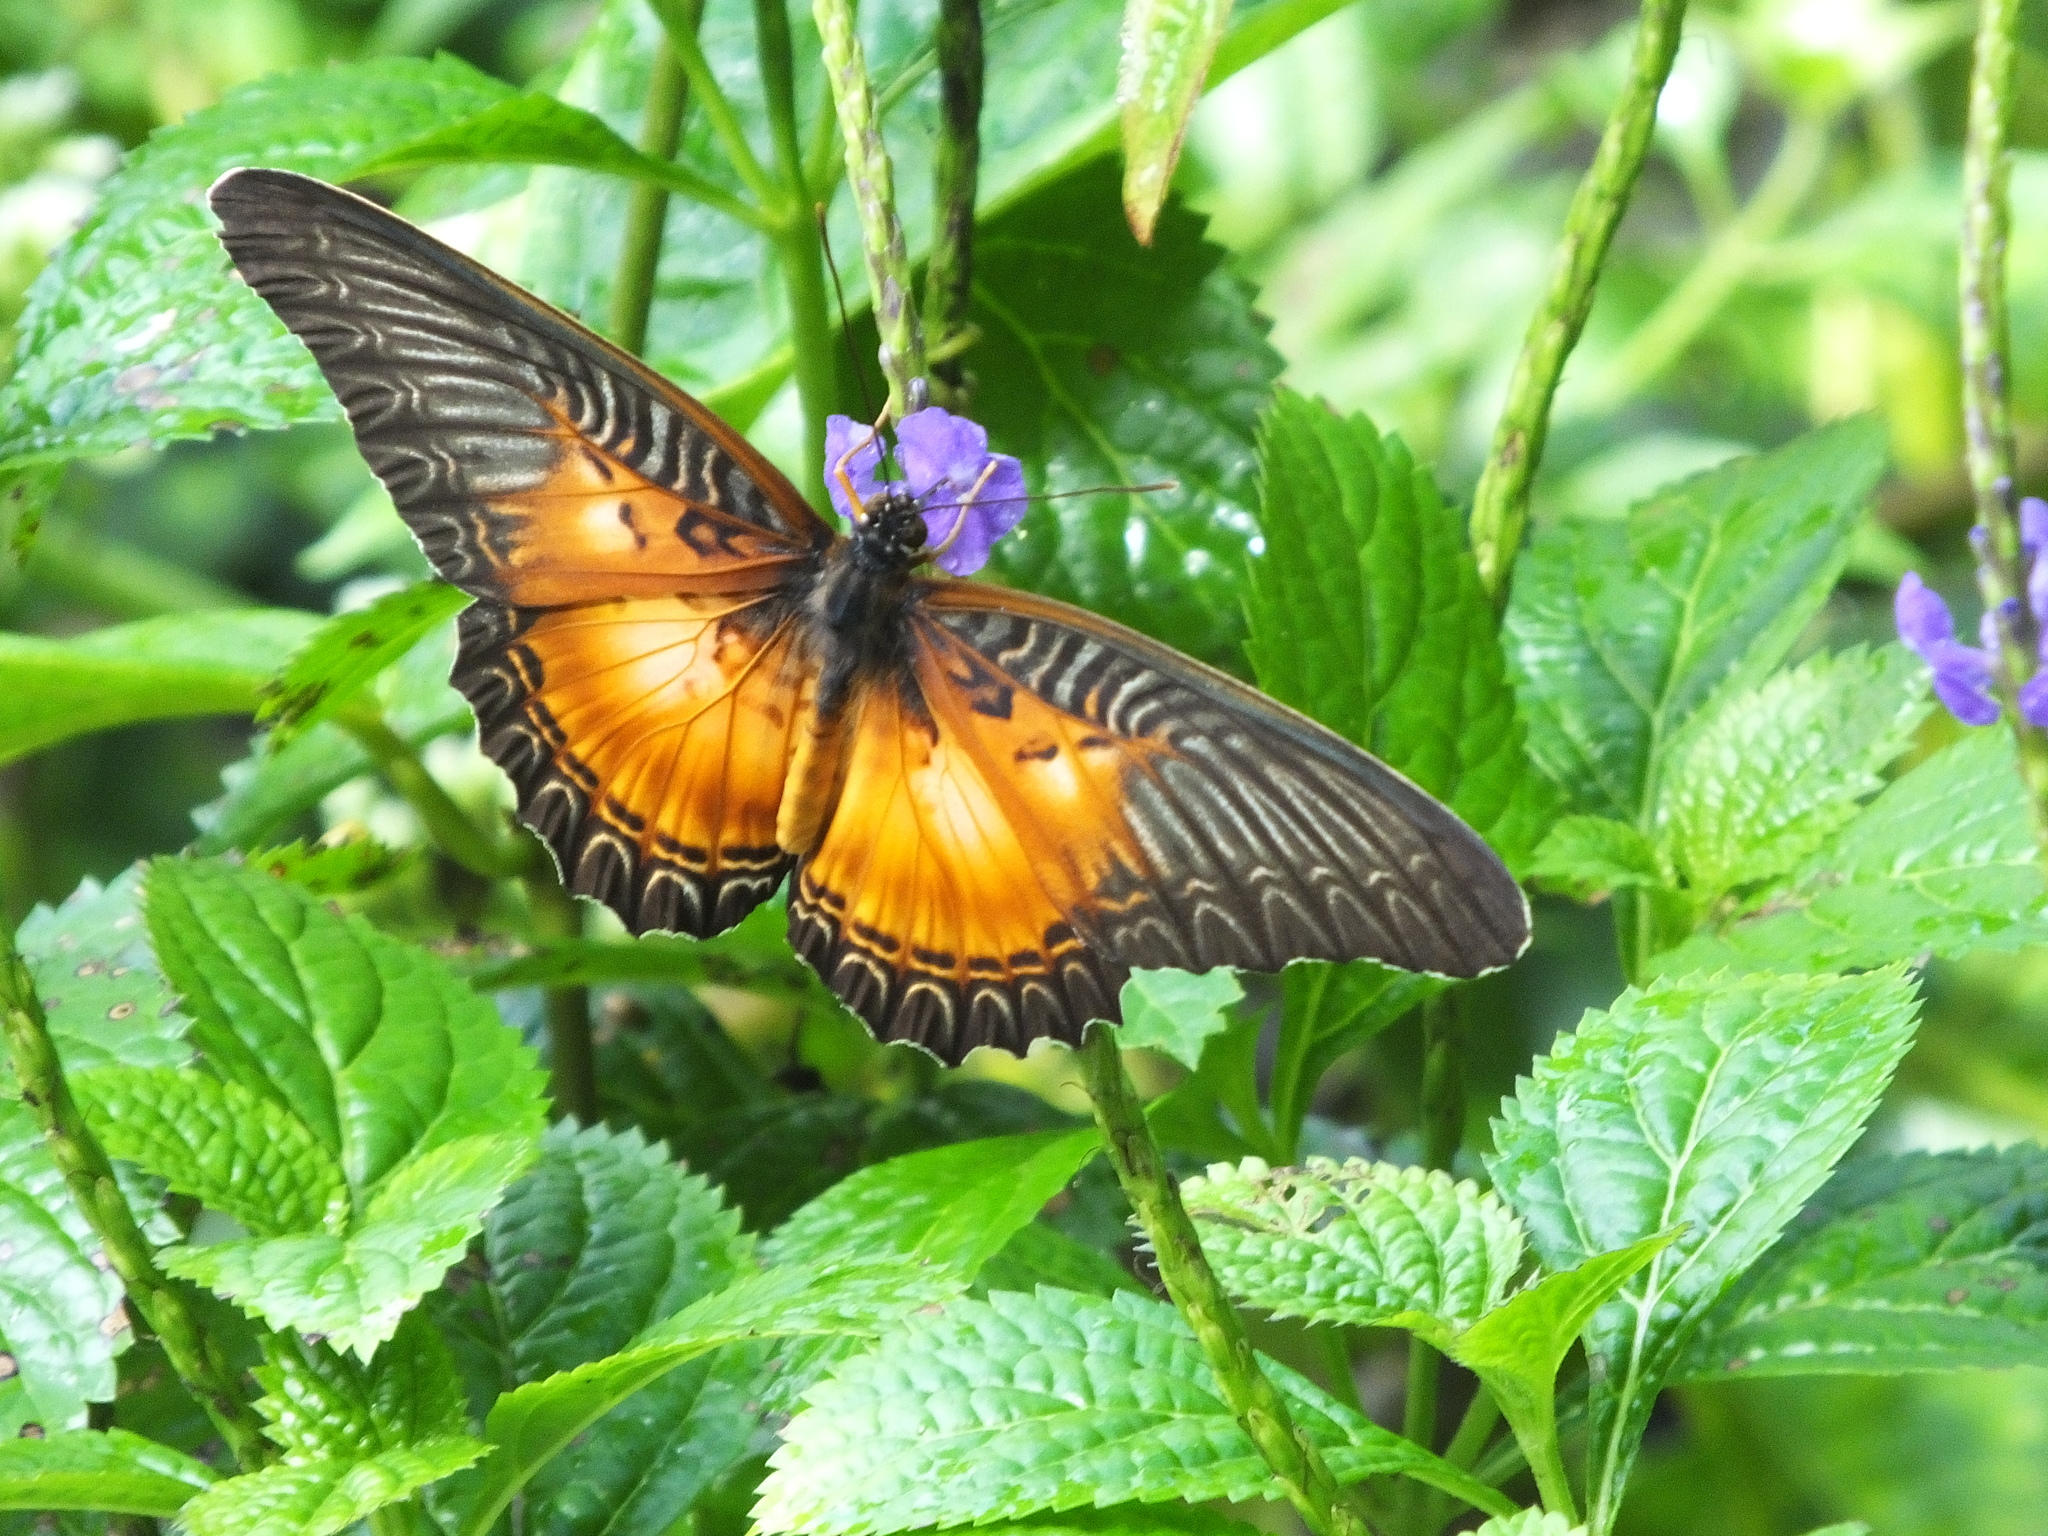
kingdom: Animalia
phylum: Arthropoda
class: Insecta
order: Lepidoptera
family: Nymphalidae
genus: Cethosia
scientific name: Cethosia myrina
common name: Violet lacewing
